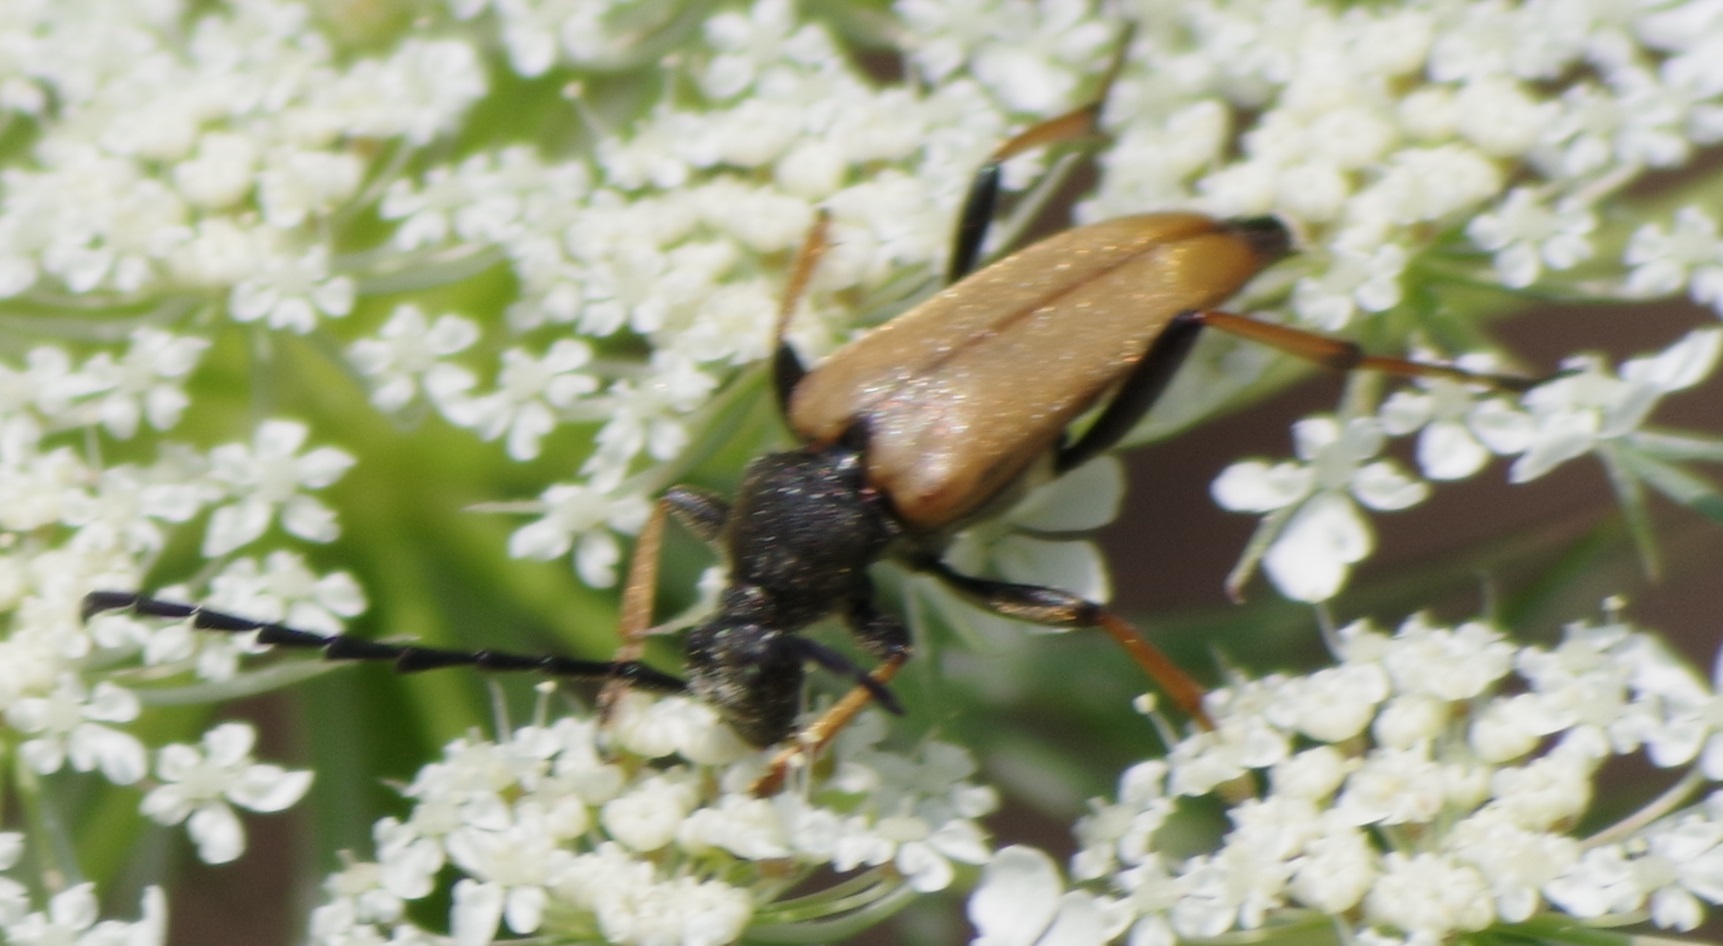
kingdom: Animalia
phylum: Arthropoda
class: Insecta
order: Coleoptera
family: Cerambycidae
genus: Stictoleptura
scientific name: Stictoleptura rubra
